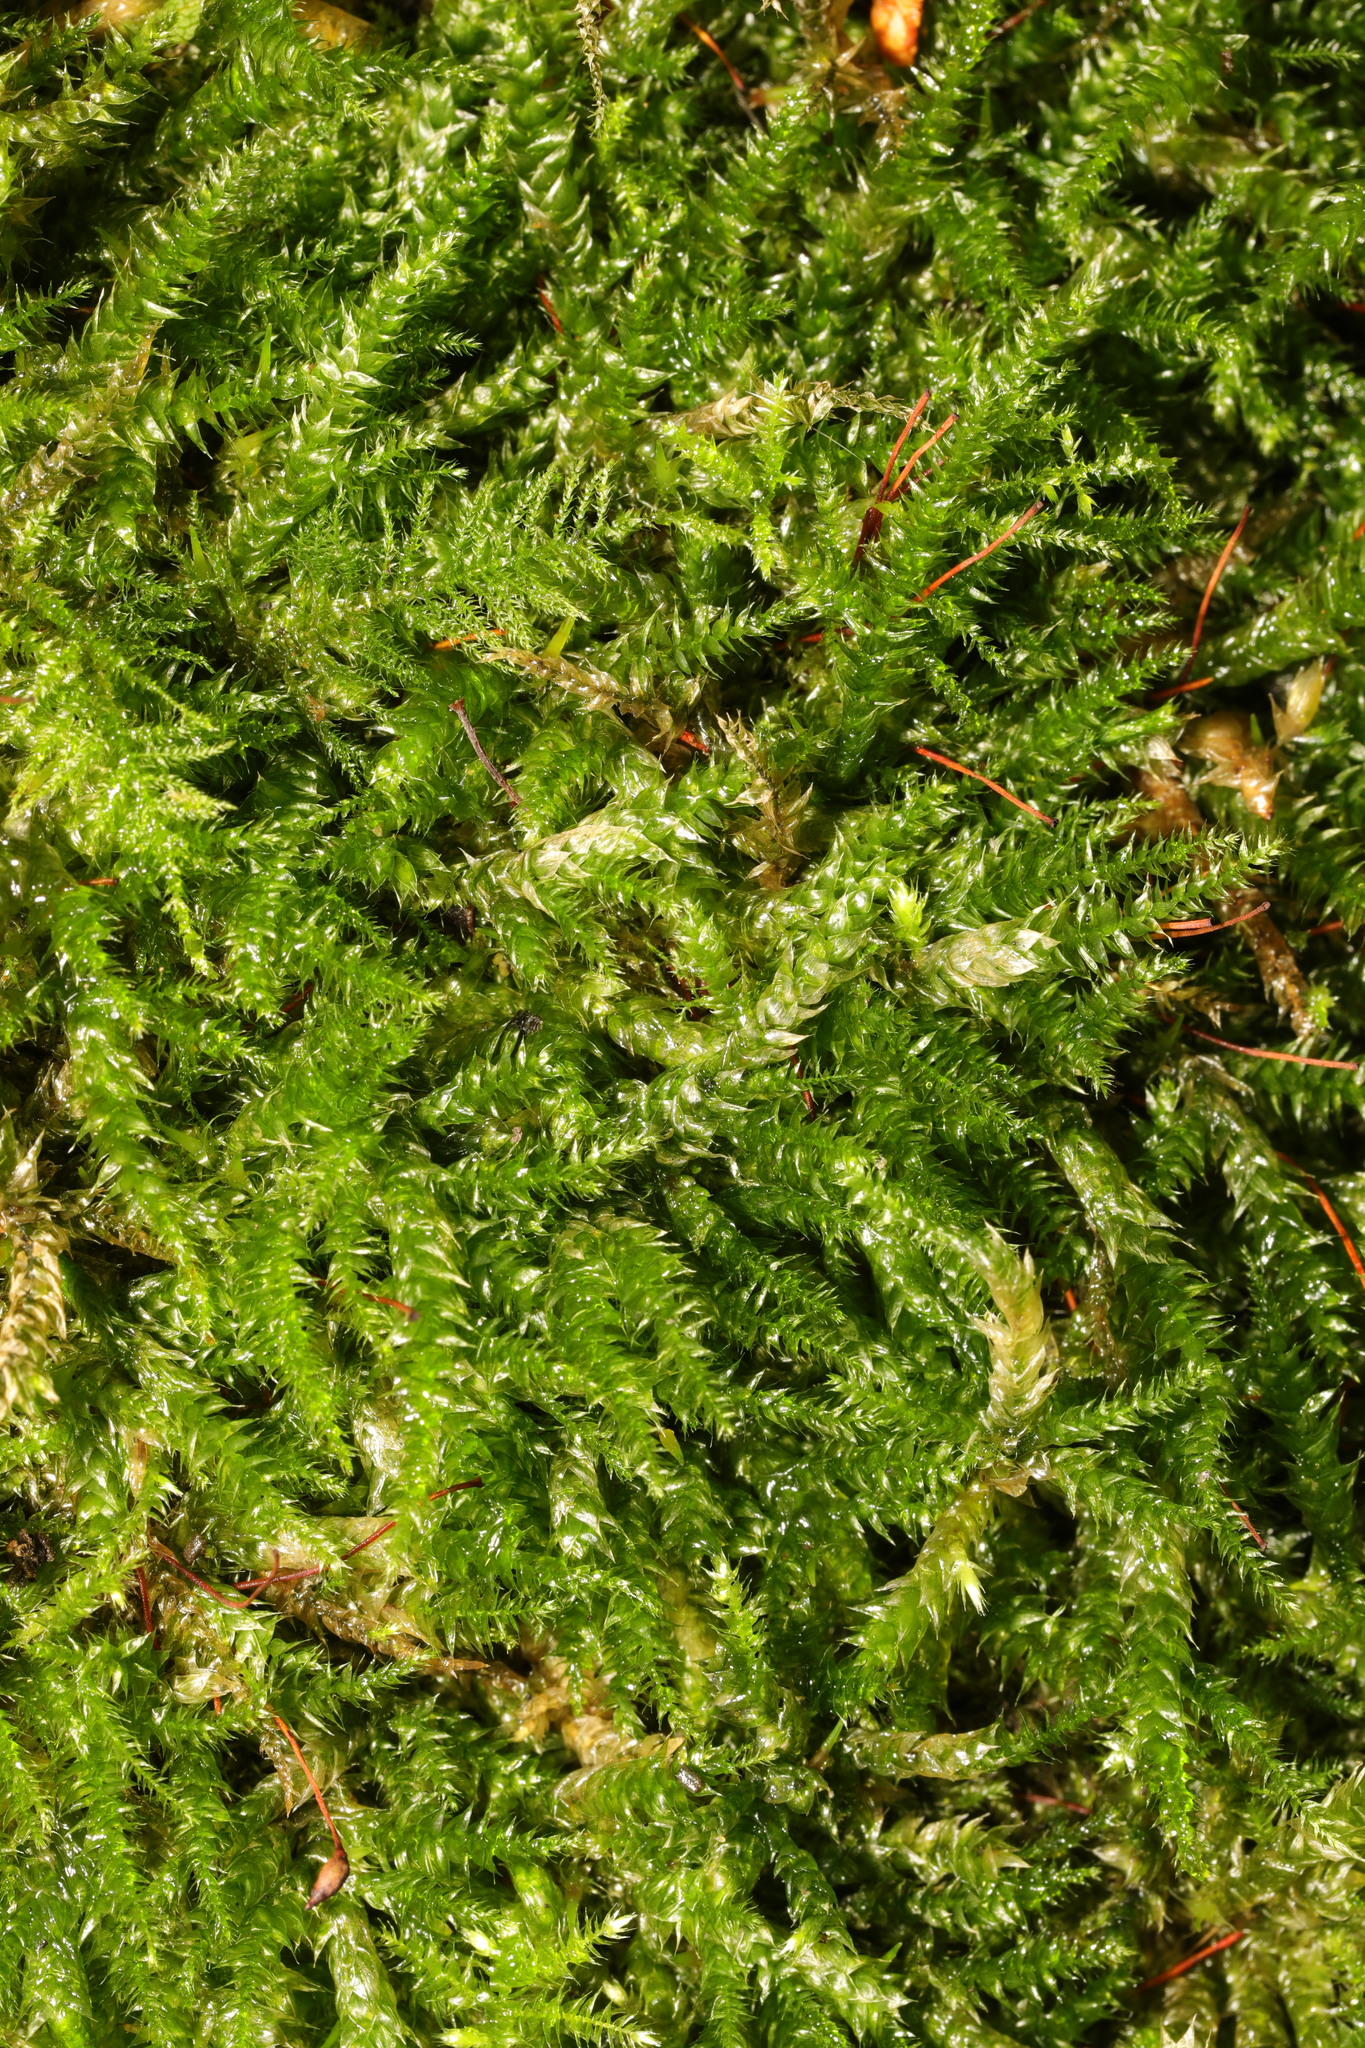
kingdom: Plantae
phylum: Bryophyta
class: Bryopsida
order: Hypnales
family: Hypnaceae
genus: Hypnum
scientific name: Hypnum cupressiforme
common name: Cypress-leaved plait-moss
